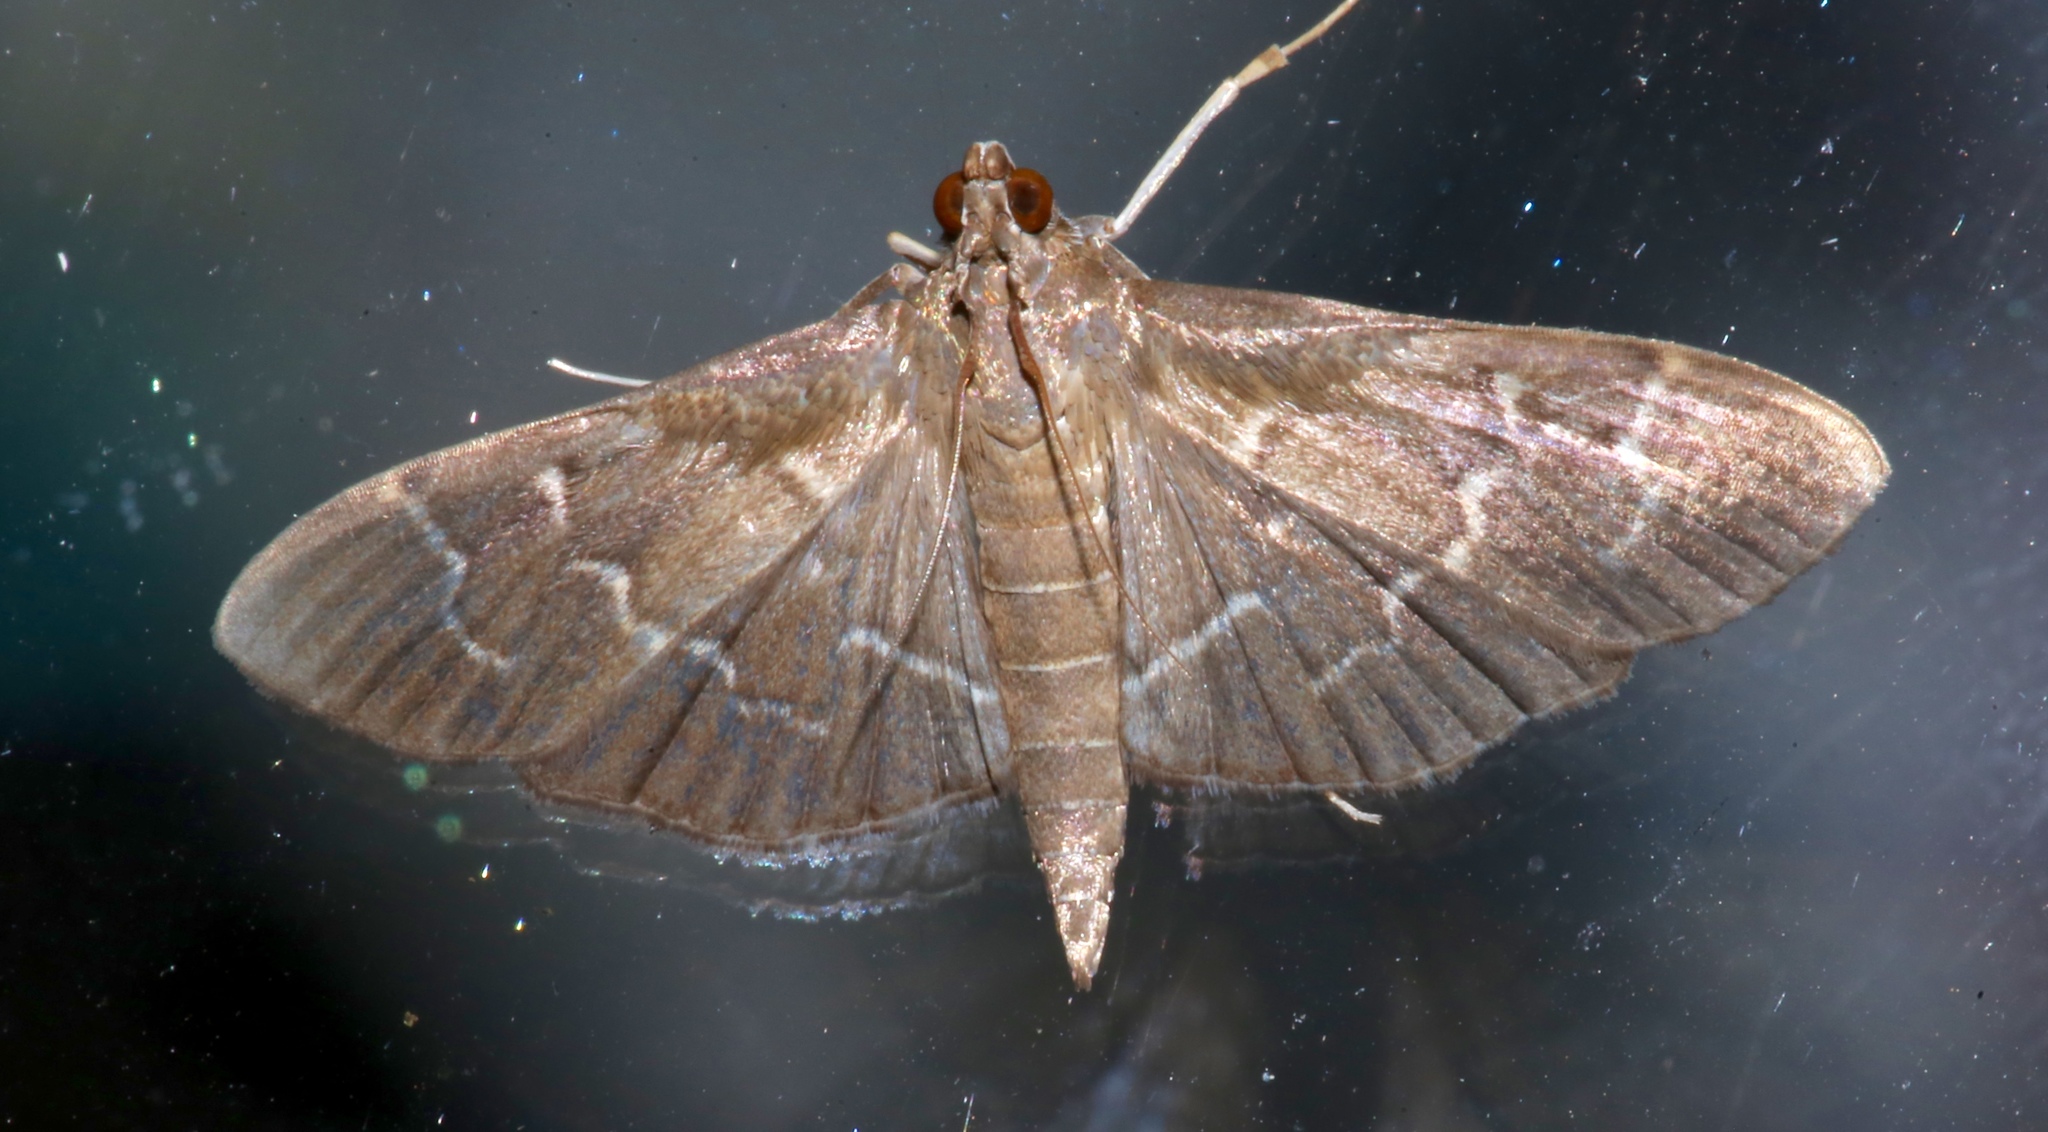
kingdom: Animalia
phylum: Arthropoda
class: Insecta
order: Lepidoptera
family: Crambidae
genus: Pilocrocis
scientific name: Pilocrocis ramentalis
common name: Scraped pilocrocis
